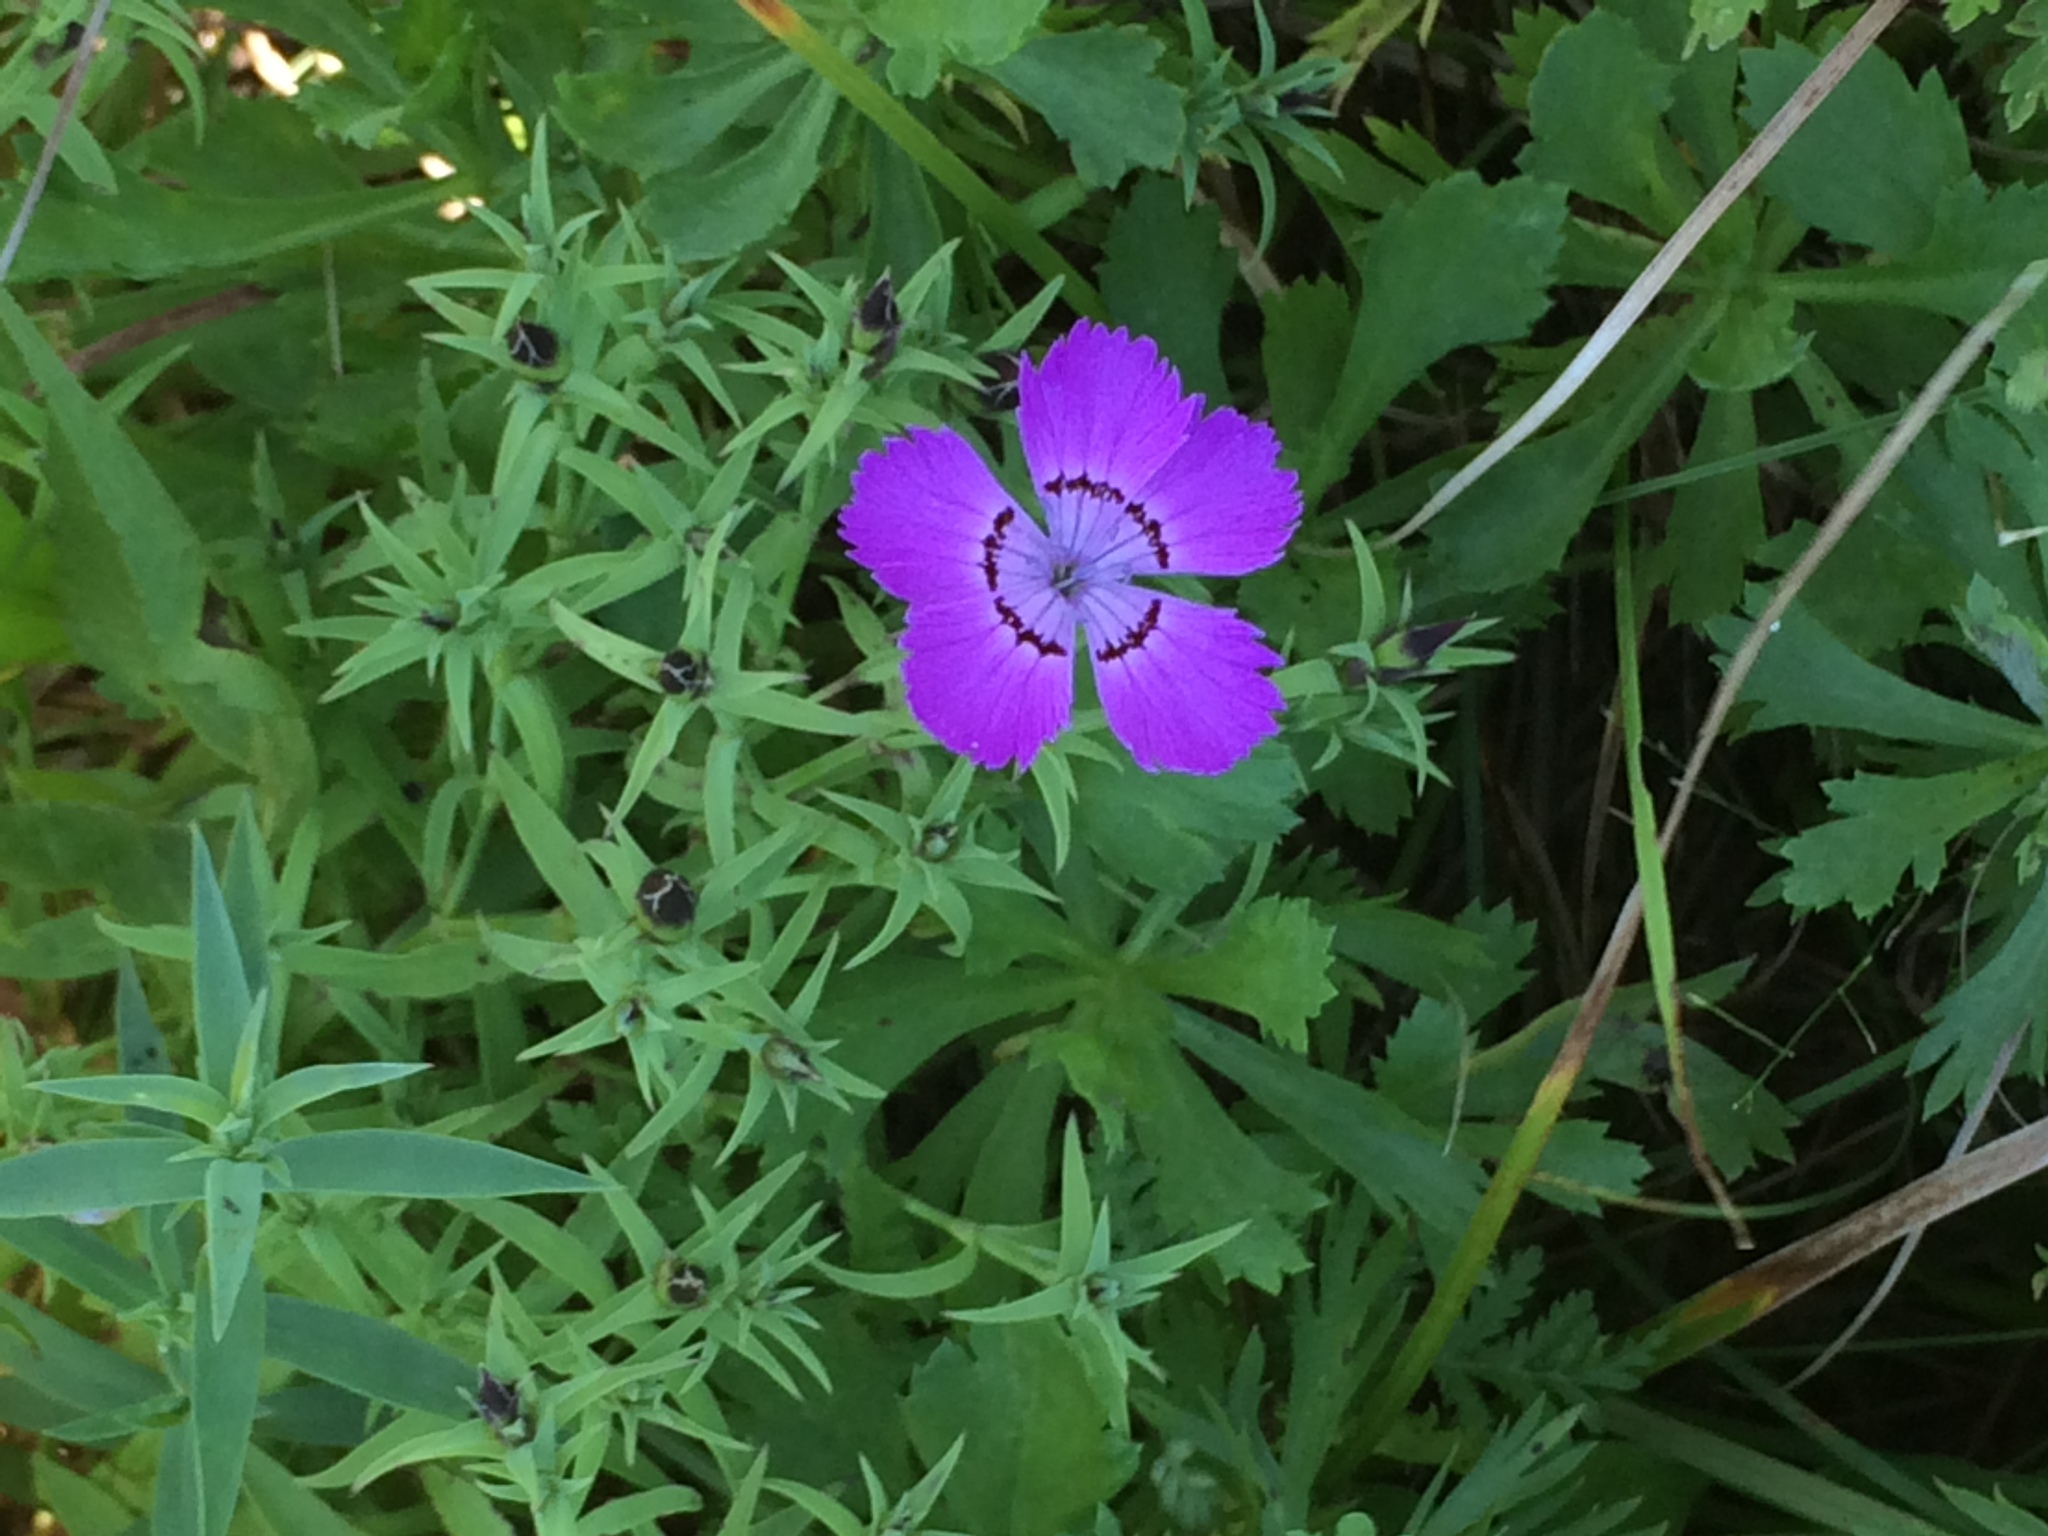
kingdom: Plantae
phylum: Tracheophyta
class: Magnoliopsida
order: Caryophyllales
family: Caryophyllaceae
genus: Dianthus
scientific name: Dianthus chinensis
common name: Rainbow pink
